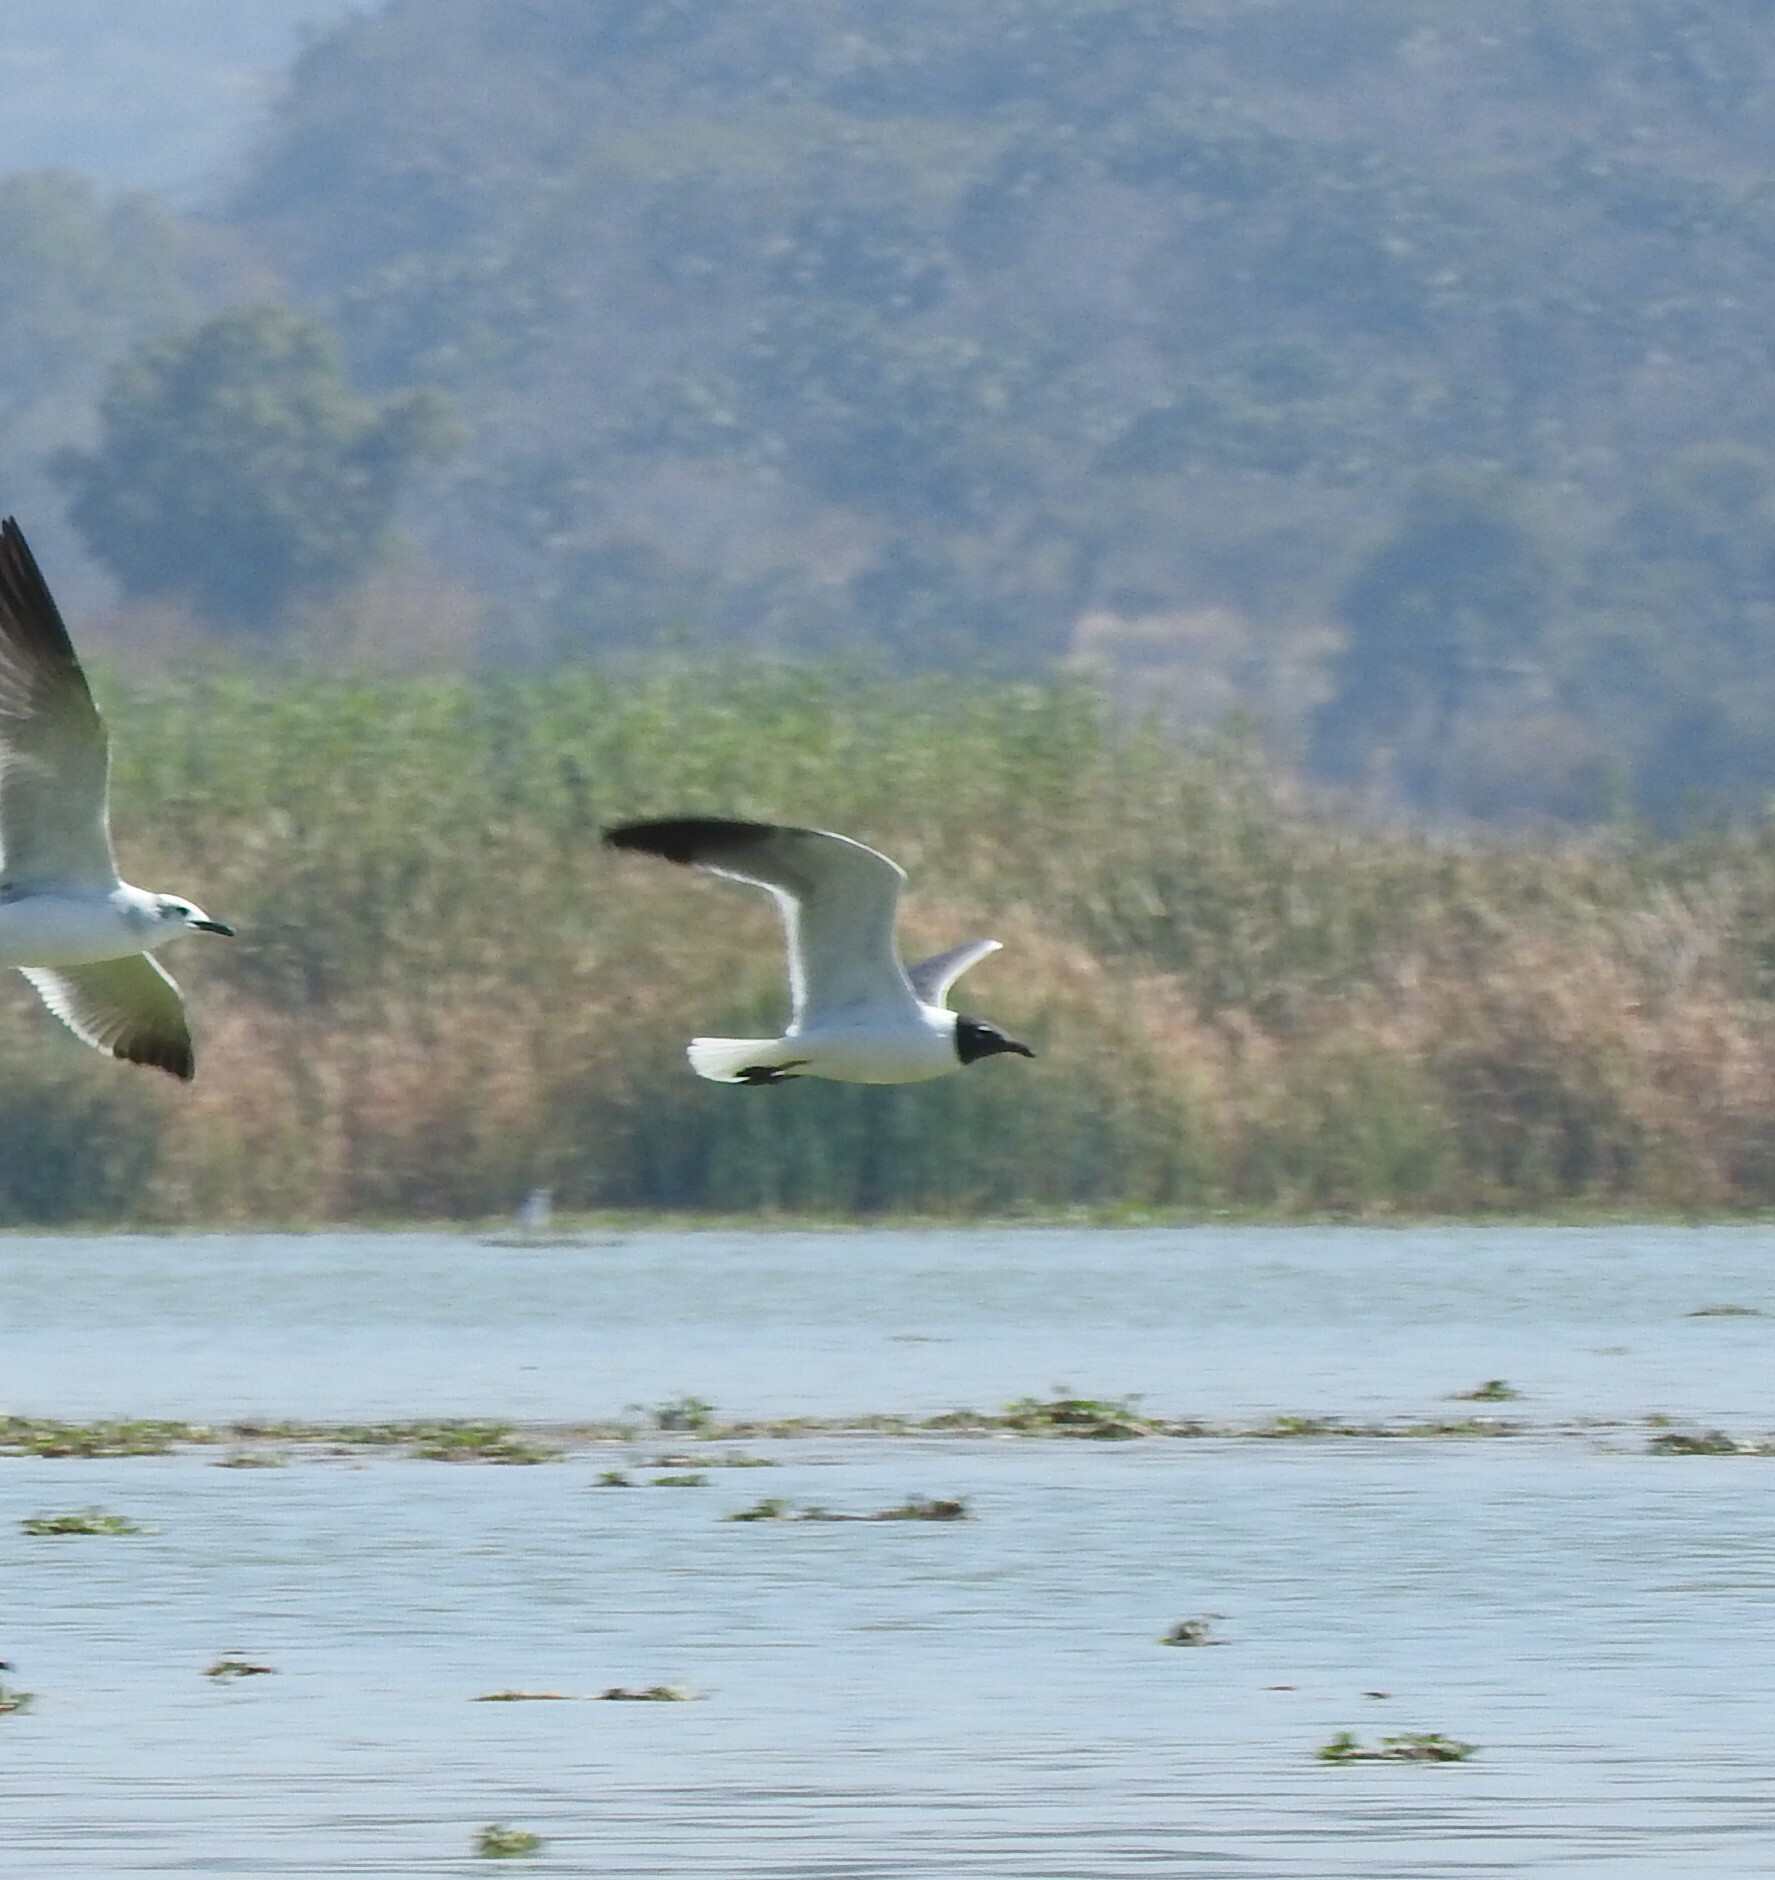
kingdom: Animalia
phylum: Chordata
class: Aves
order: Charadriiformes
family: Laridae
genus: Leucophaeus
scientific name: Leucophaeus atricilla
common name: Laughing gull
